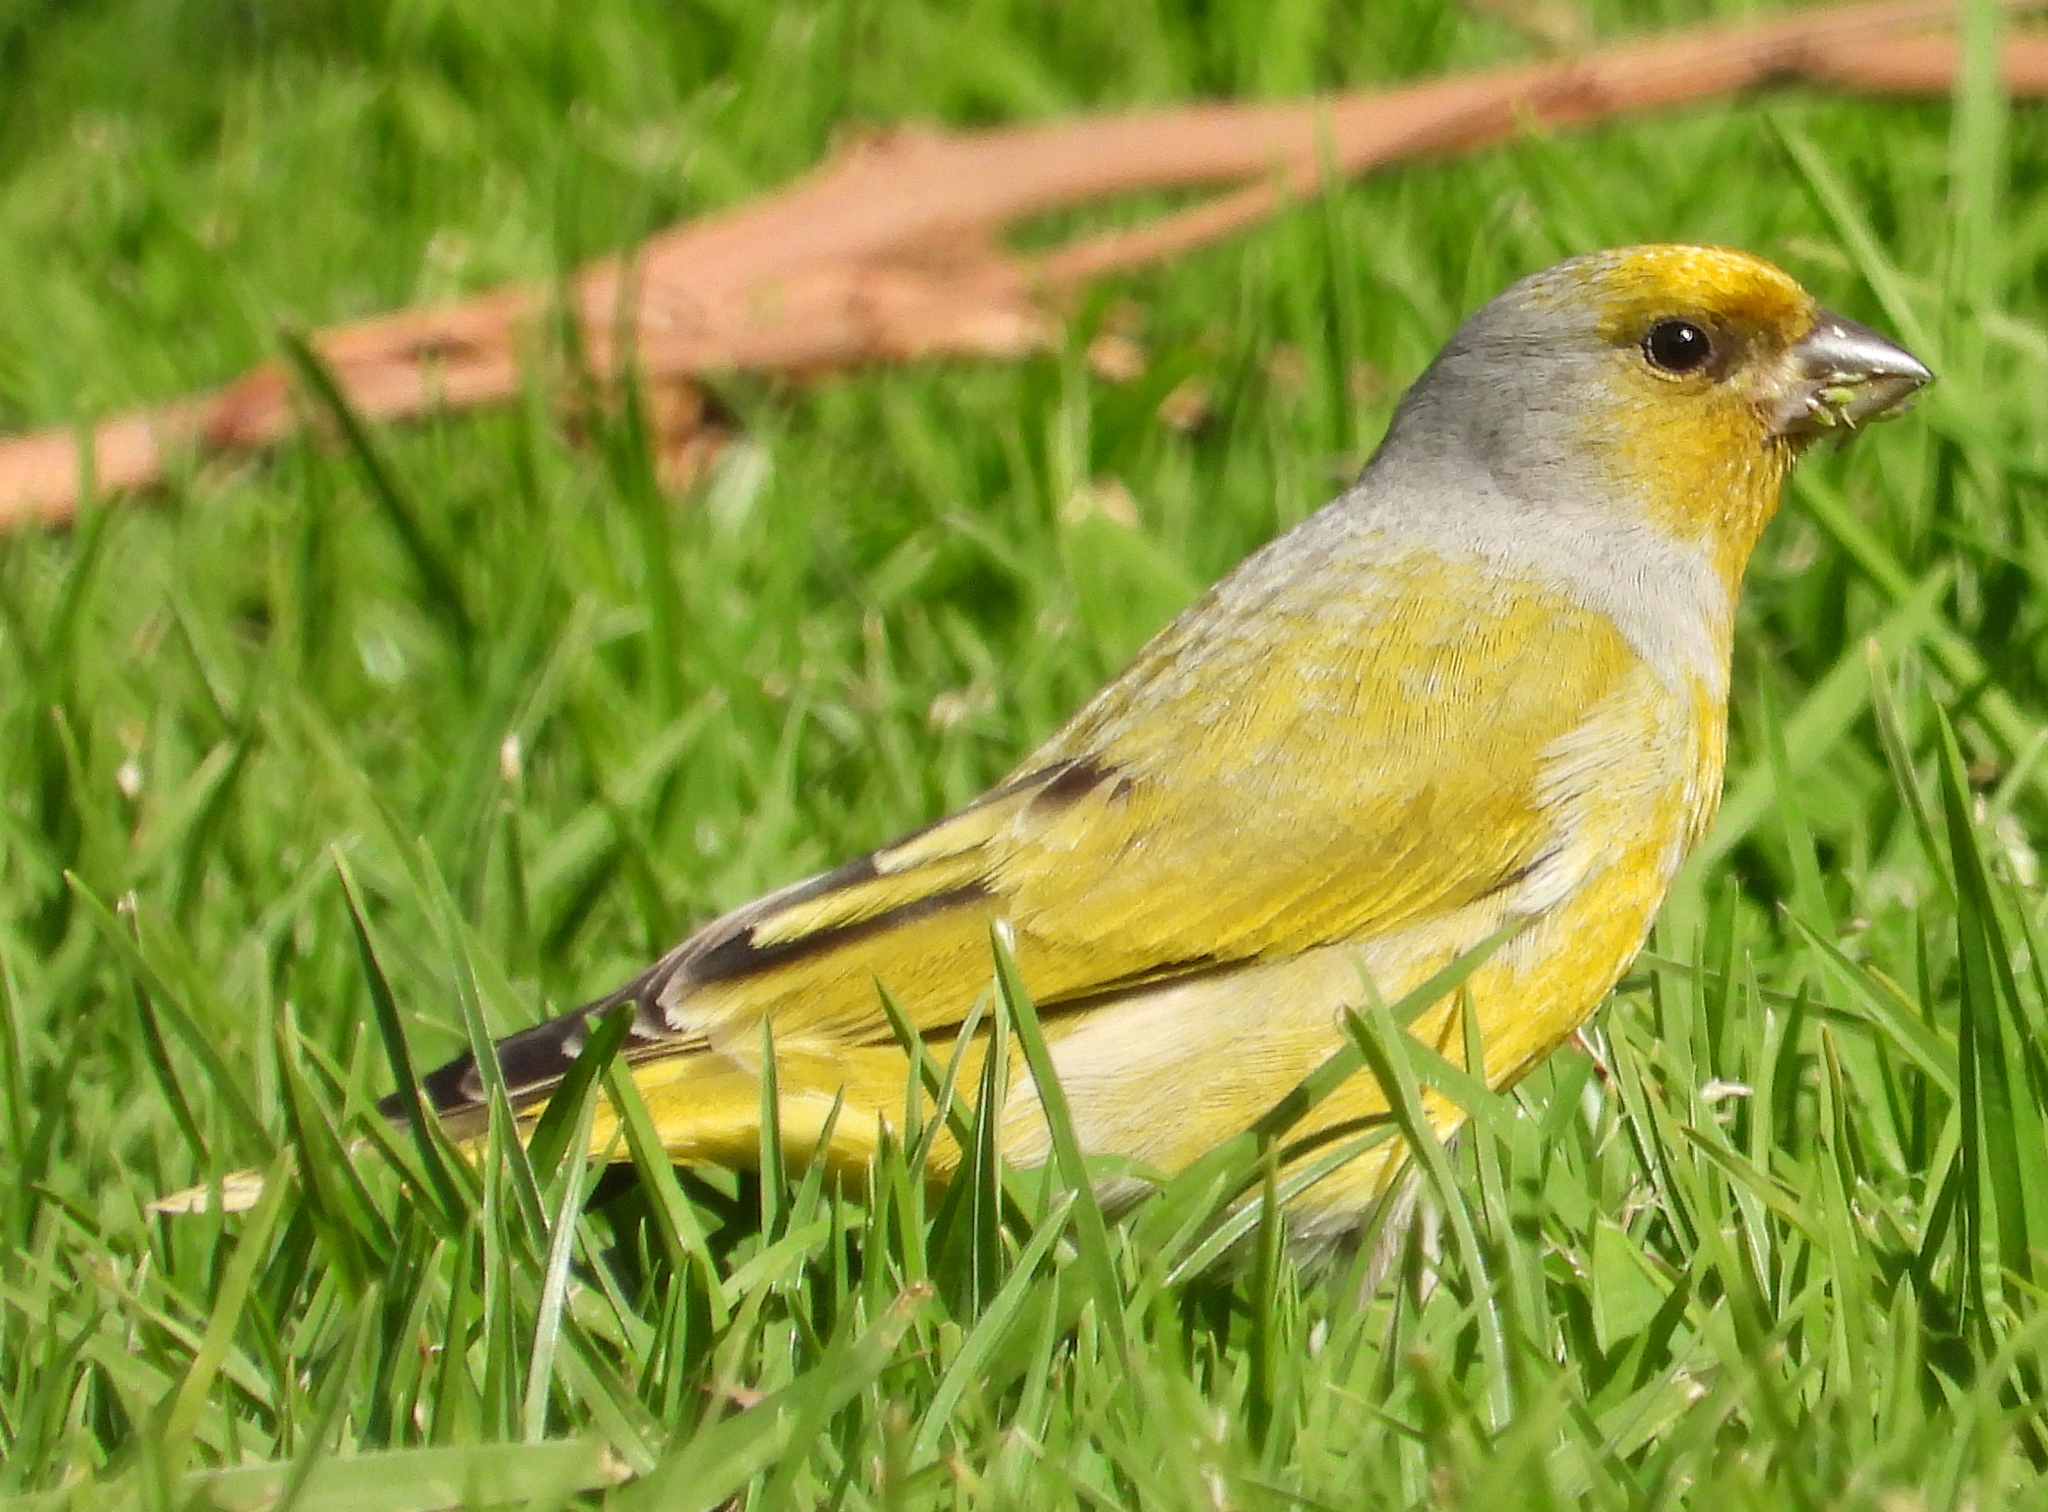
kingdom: Animalia
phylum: Chordata
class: Aves
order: Passeriformes
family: Fringillidae
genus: Serinus
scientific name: Serinus canicollis
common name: Cape canary
